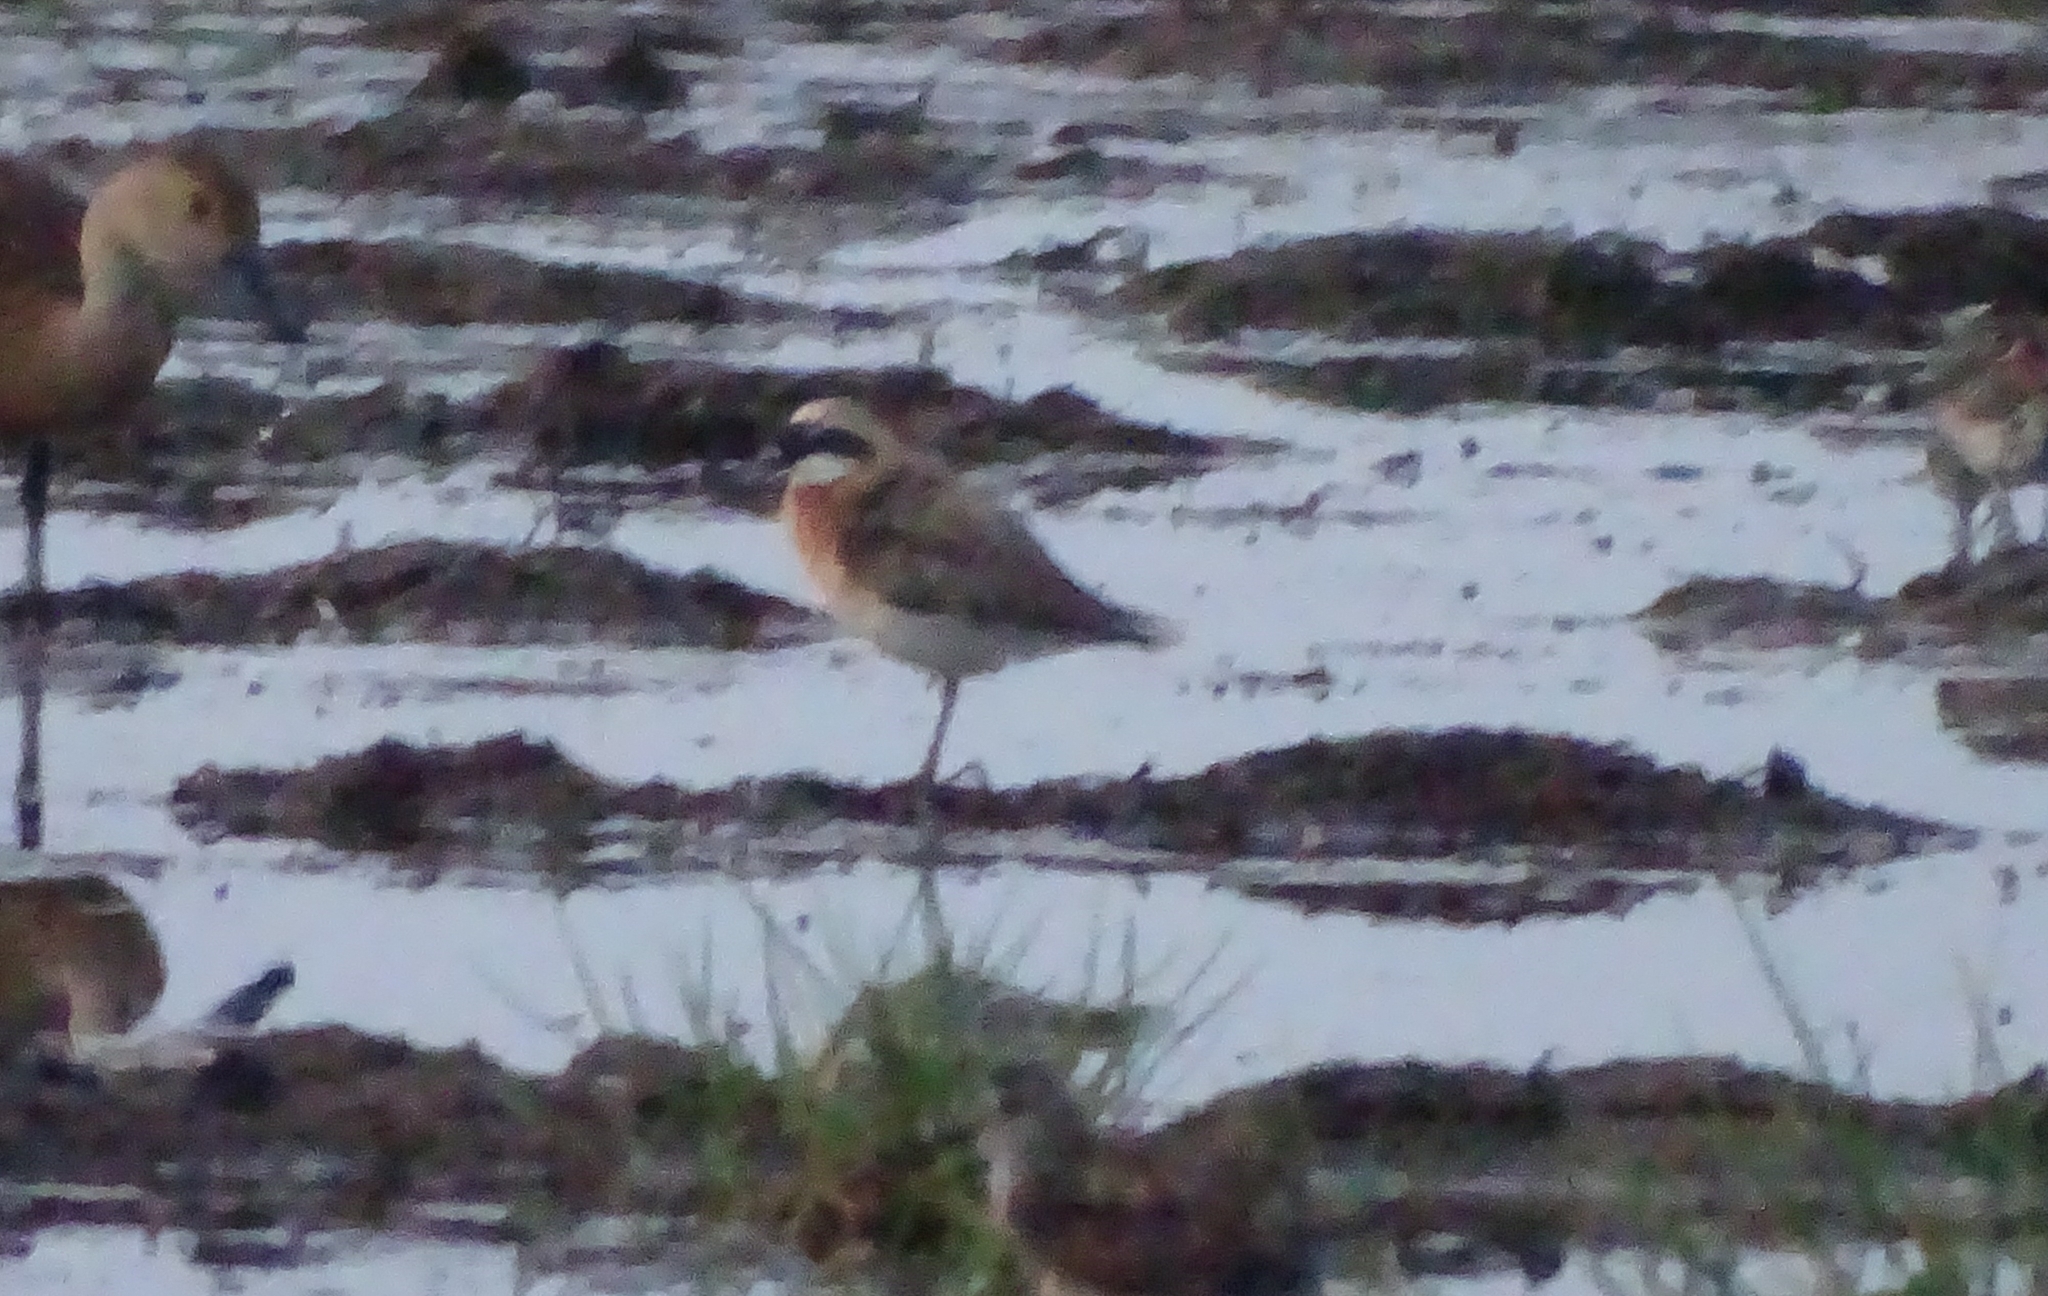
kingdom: Animalia
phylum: Chordata
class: Aves
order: Charadriiformes
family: Charadriidae
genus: Anarhynchus
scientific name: Anarhynchus
